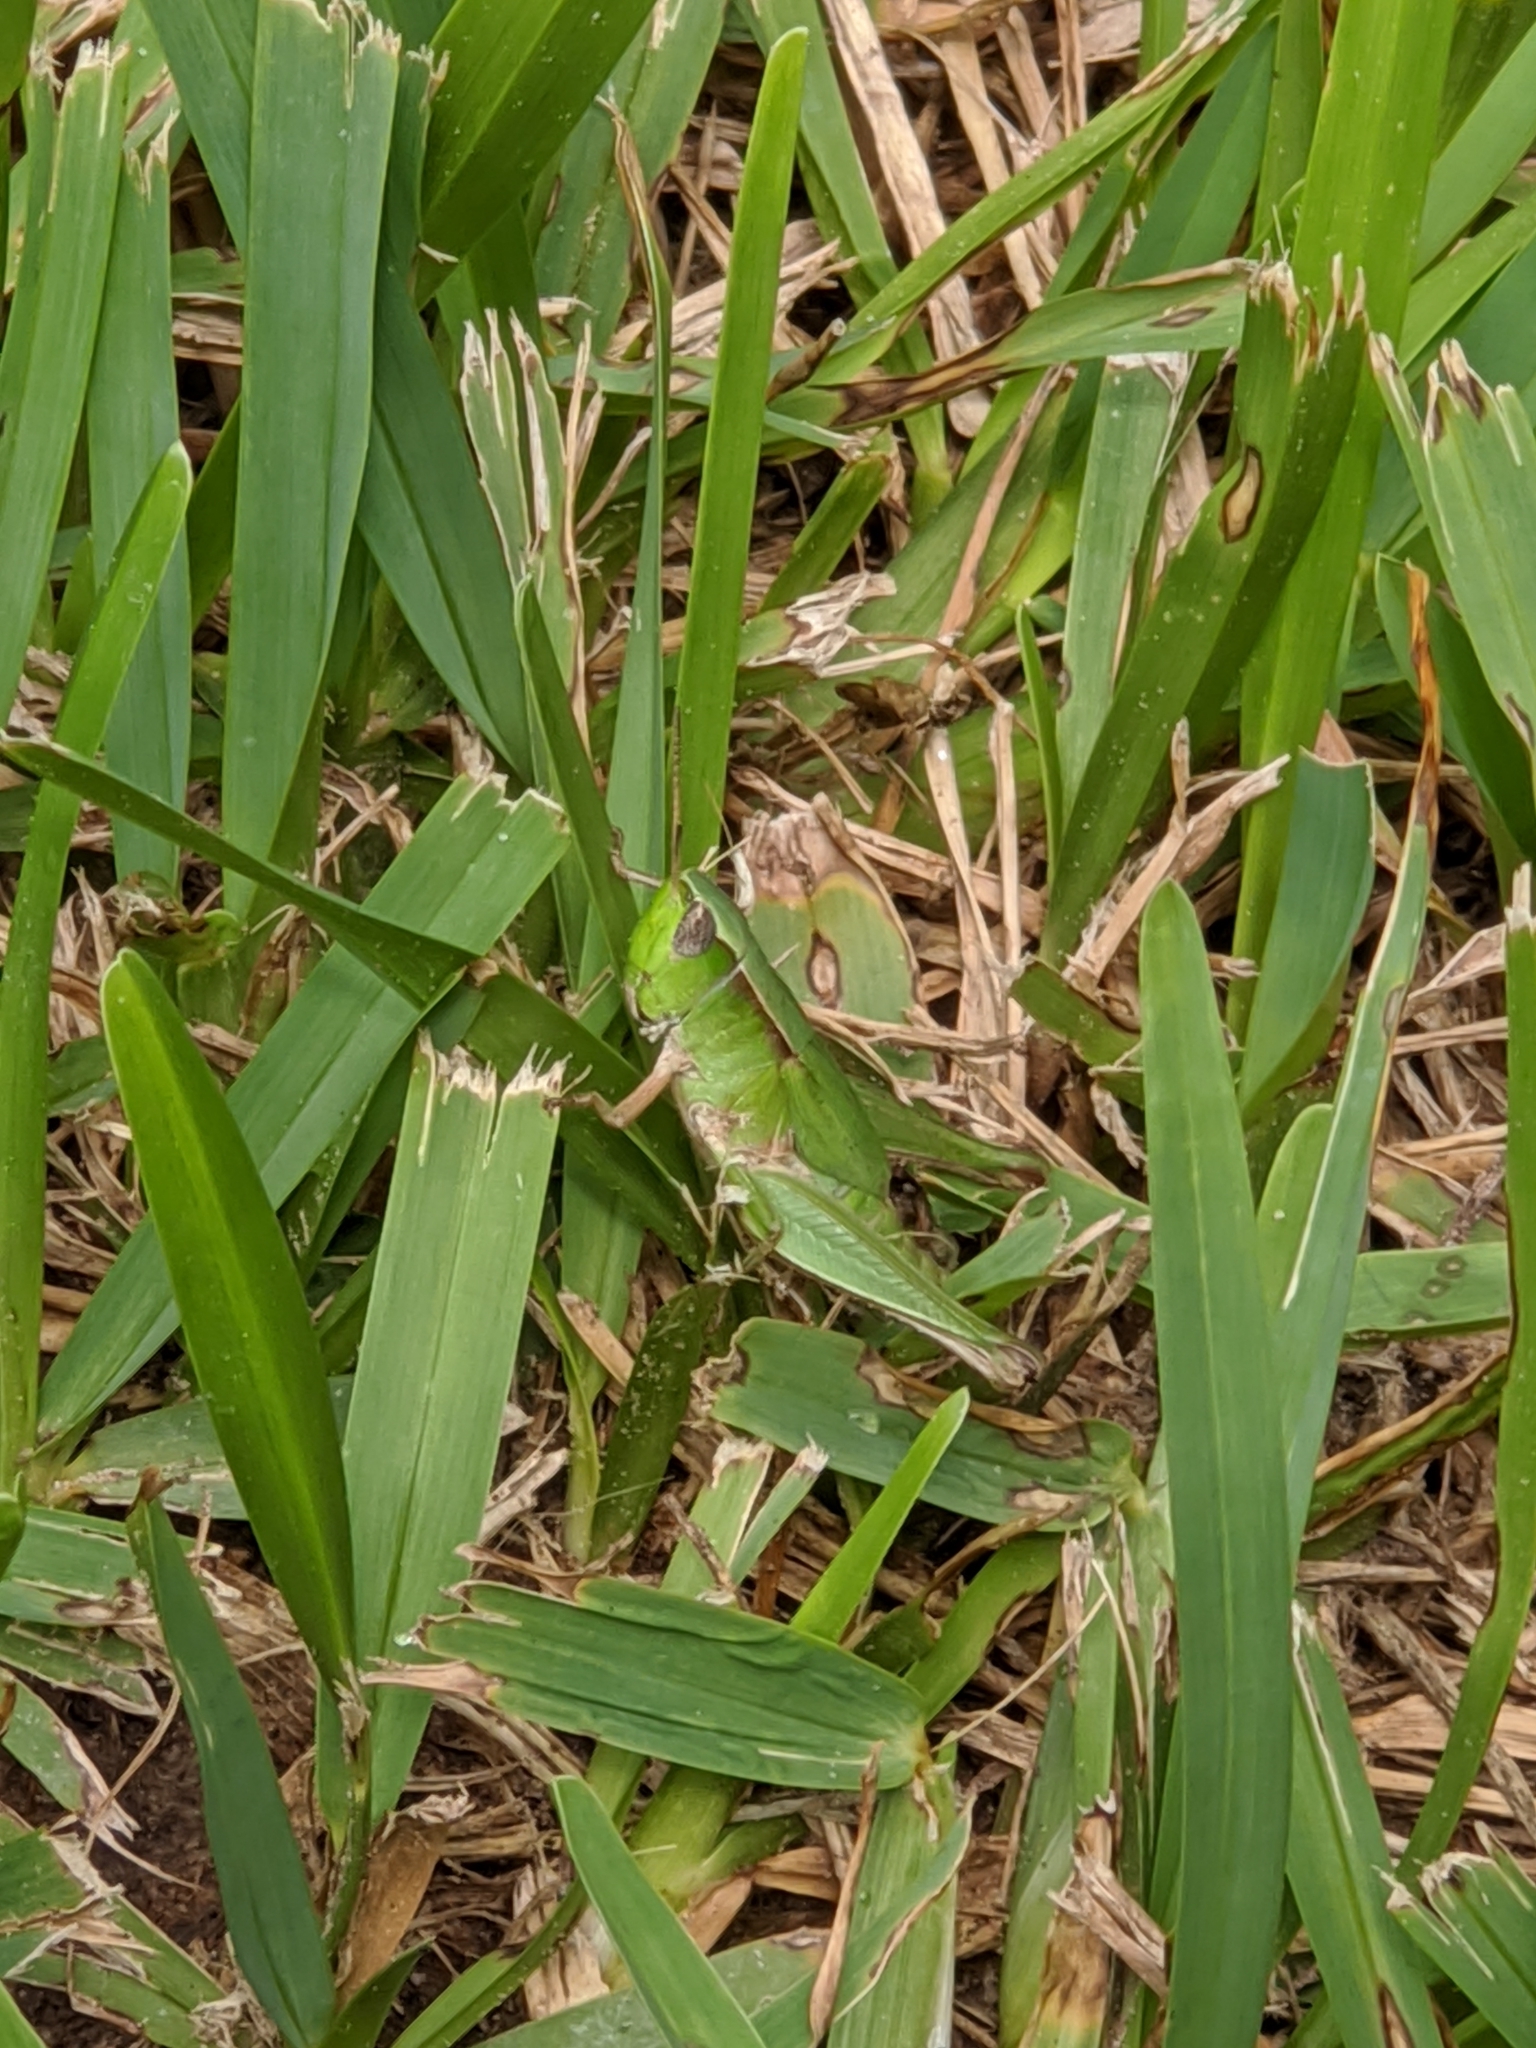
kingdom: Animalia
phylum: Arthropoda
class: Insecta
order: Orthoptera
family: Acrididae
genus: Dichromorpha
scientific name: Dichromorpha viridis
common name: Short-winged green grasshopper
